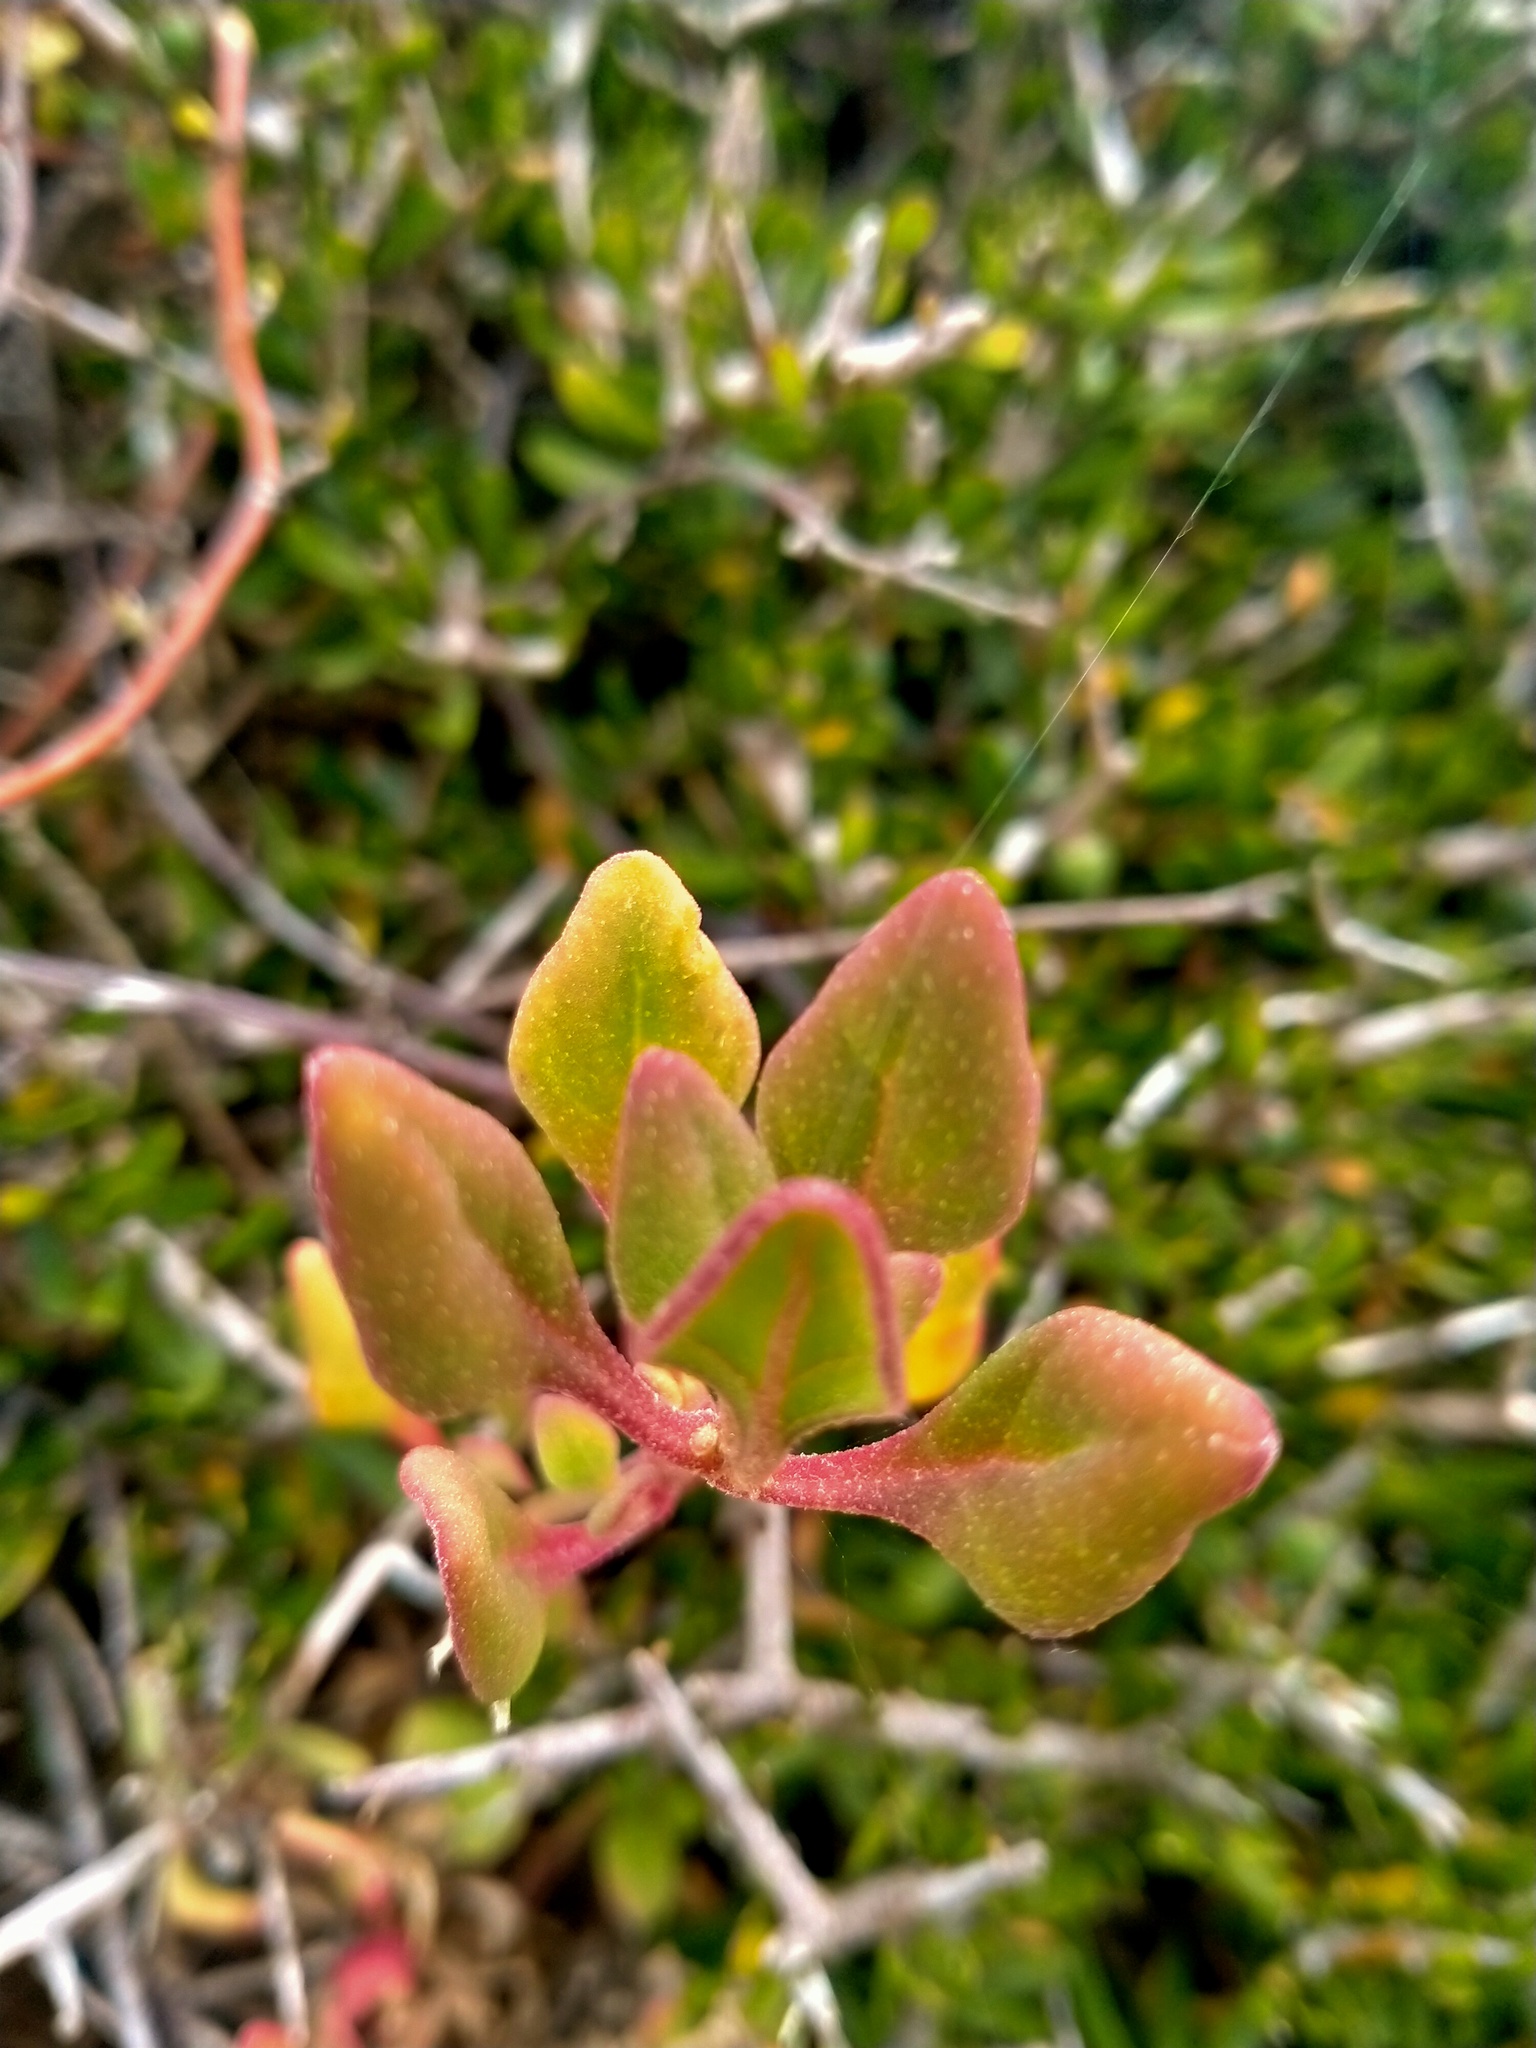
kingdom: Plantae
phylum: Tracheophyta
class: Magnoliopsida
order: Caryophyllales
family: Aizoaceae
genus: Tetragonia
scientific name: Tetragonia implexicoma
